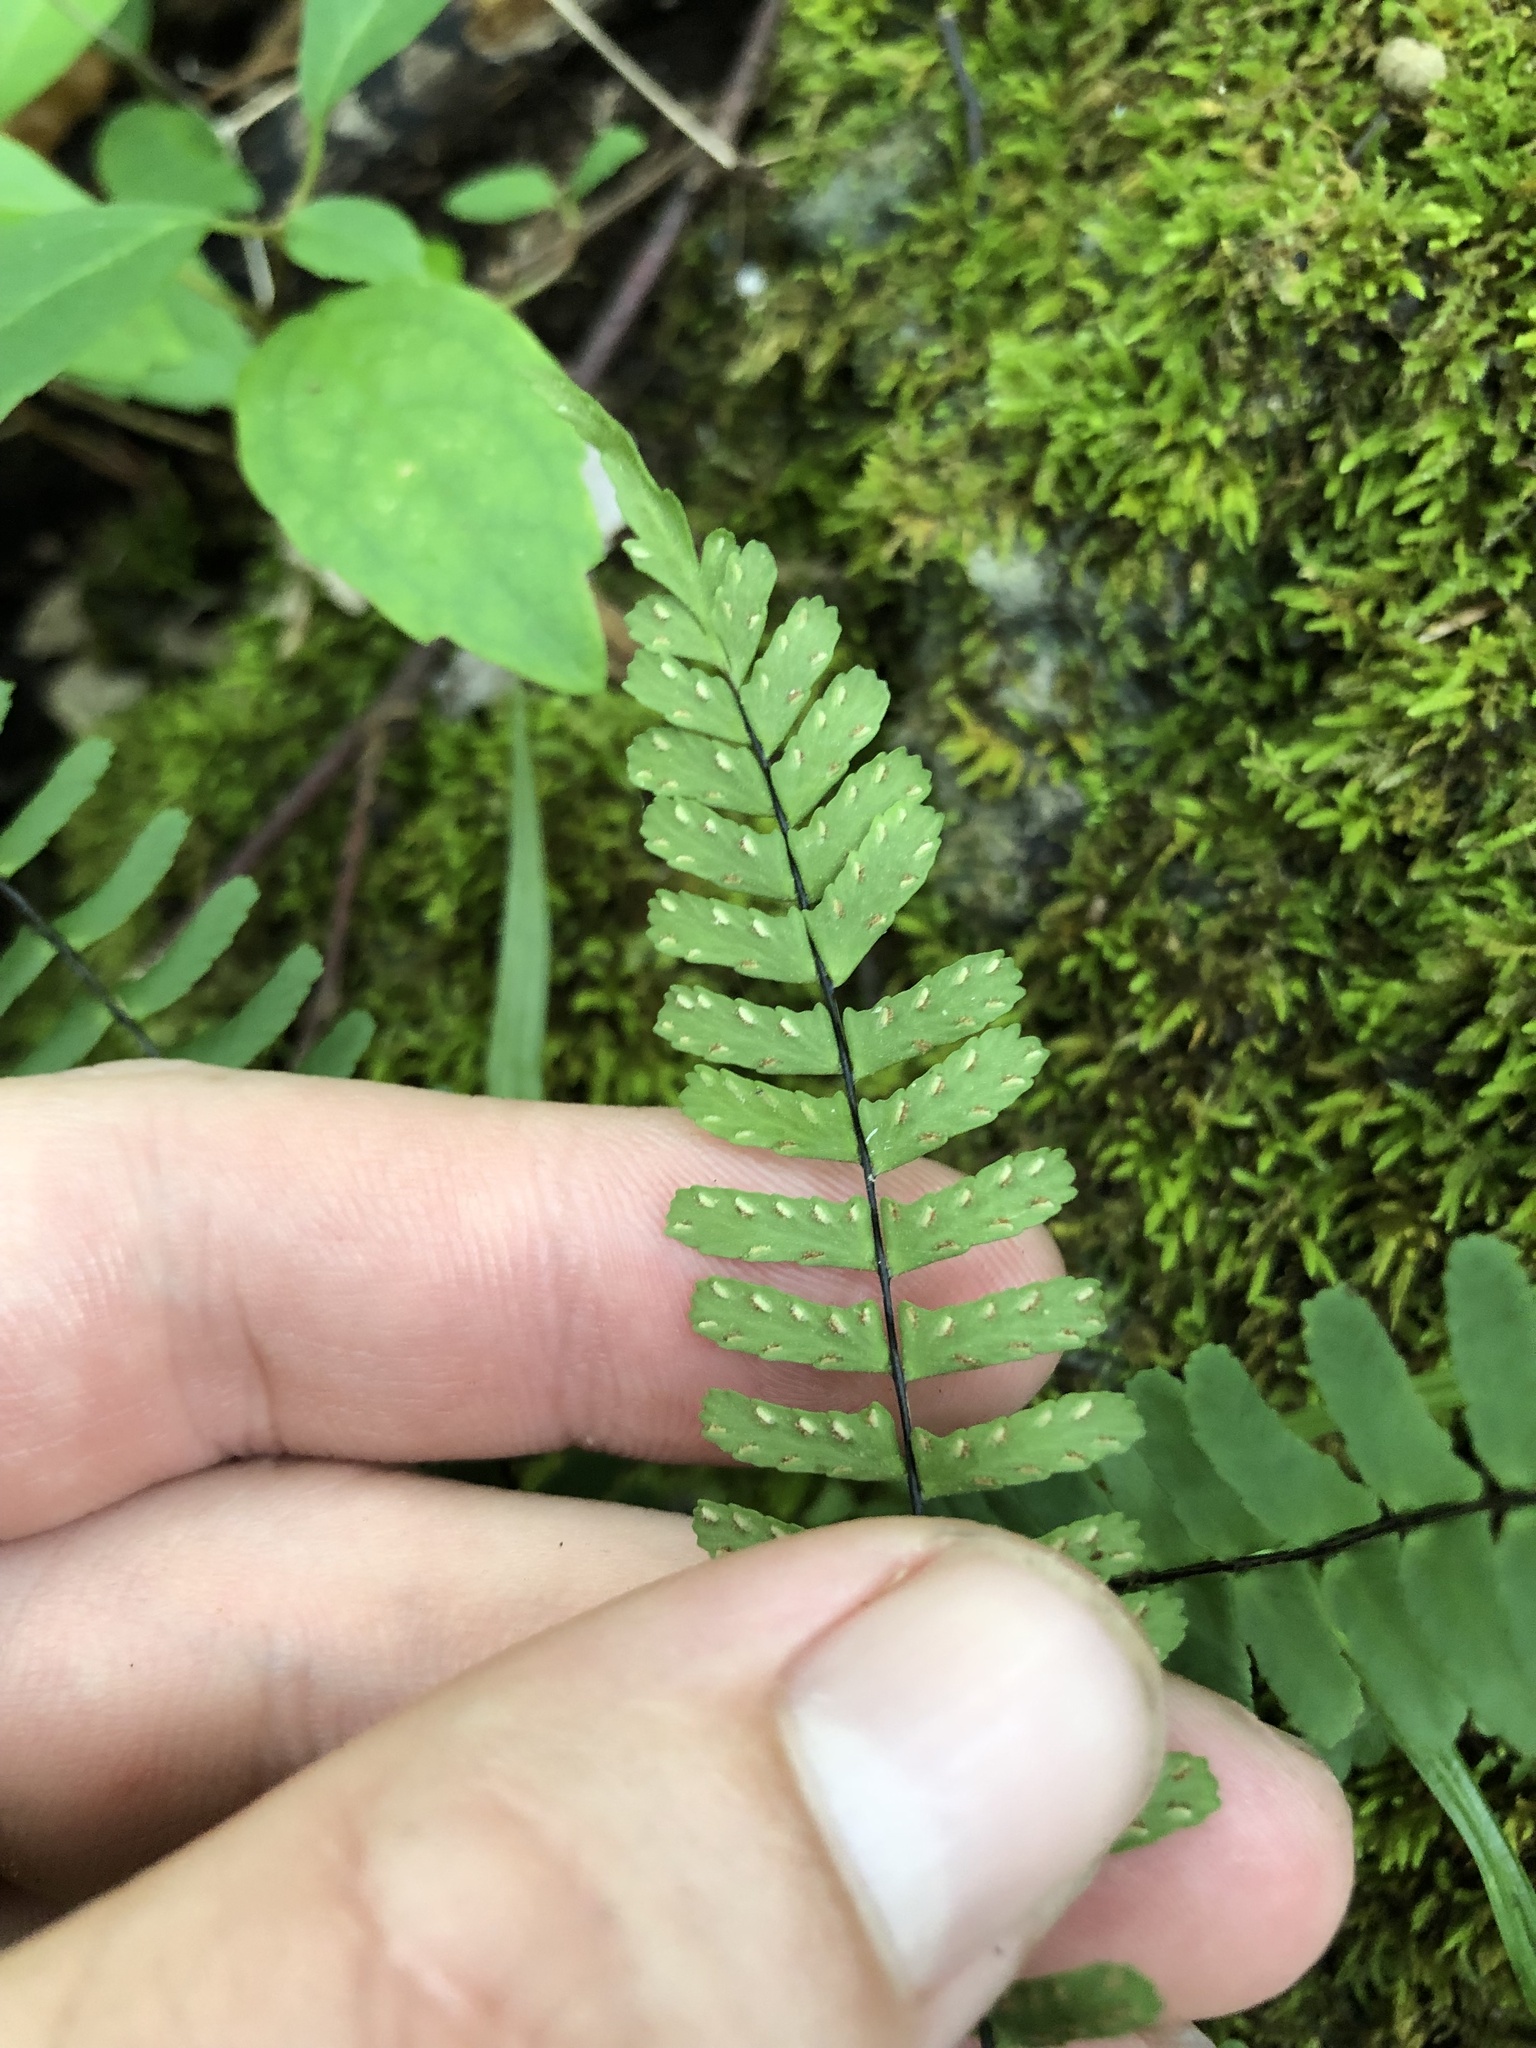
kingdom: Plantae
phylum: Tracheophyta
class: Polypodiopsida
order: Polypodiales
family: Aspleniaceae
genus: Asplenium
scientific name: Asplenium resiliens
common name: Blackstem spleenwort
